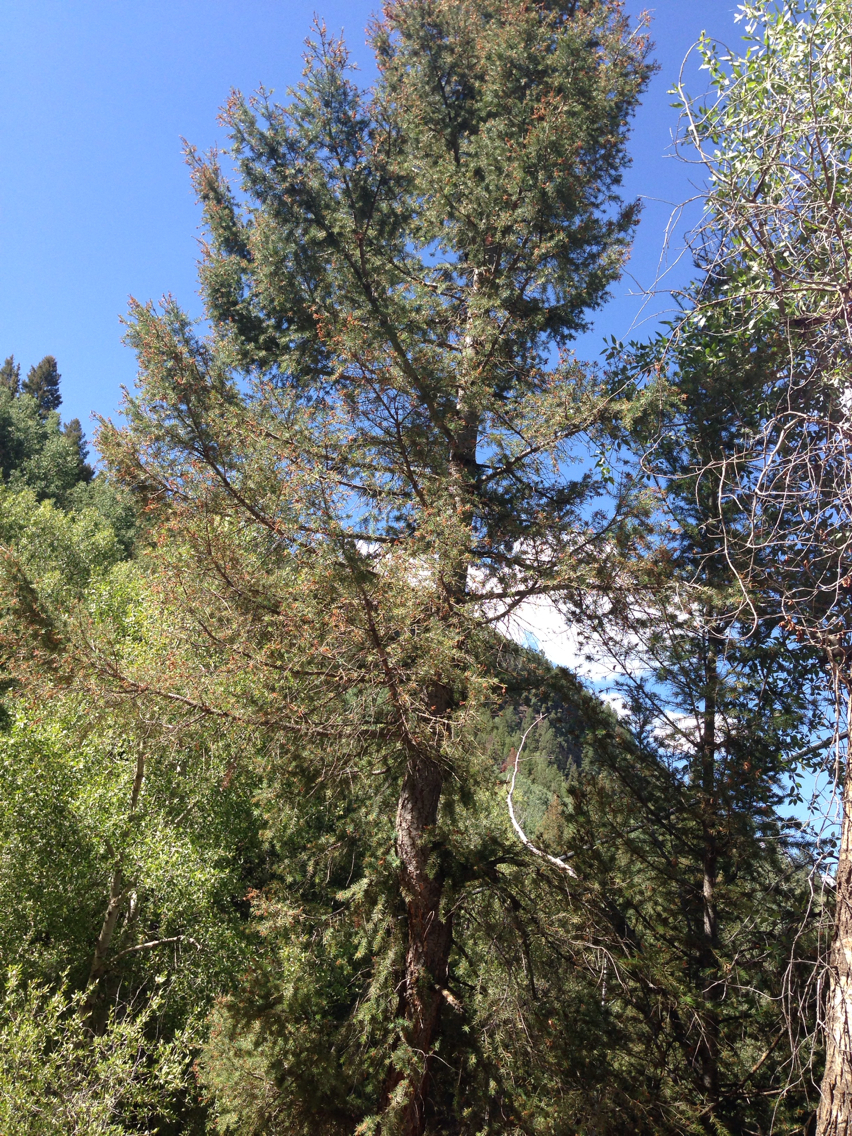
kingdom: Plantae
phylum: Tracheophyta
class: Pinopsida
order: Pinales
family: Pinaceae
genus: Pseudotsuga
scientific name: Pseudotsuga menziesii
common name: Douglas fir
